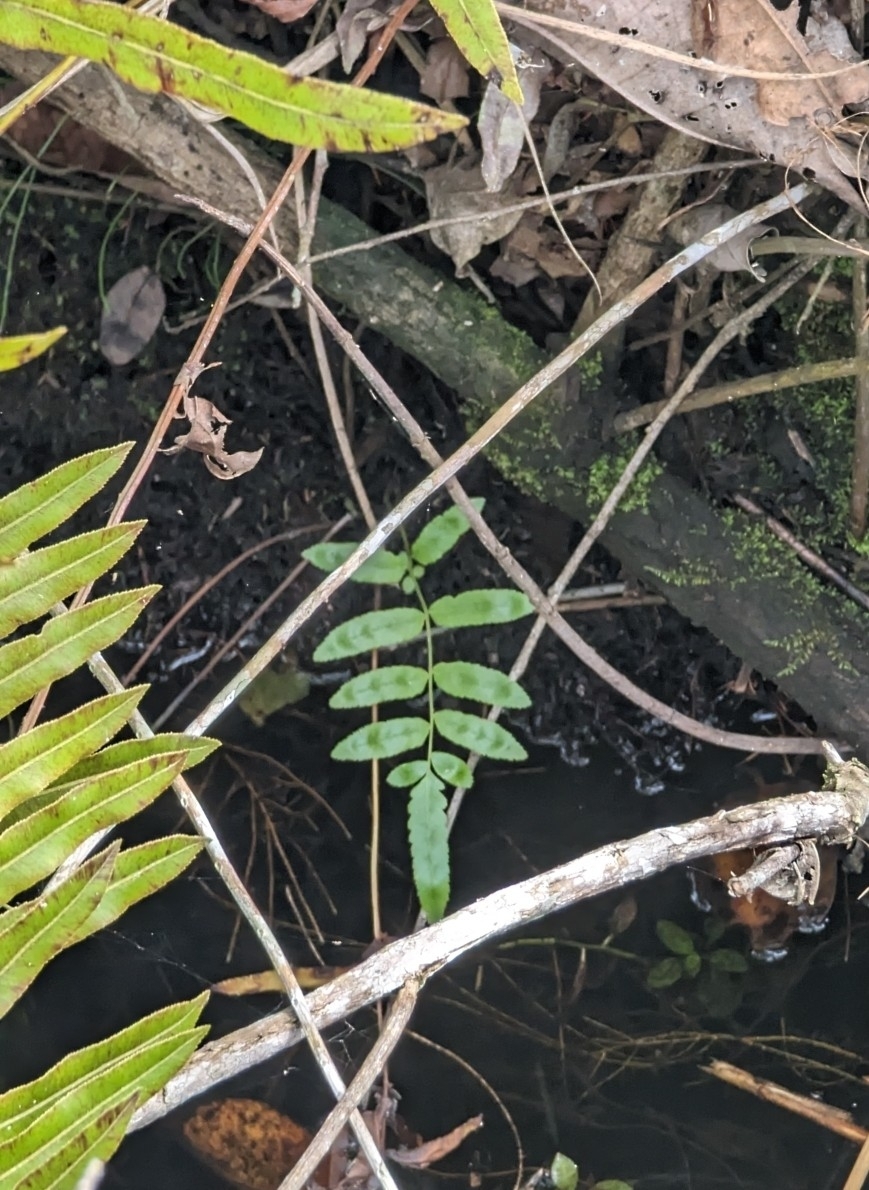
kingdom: Plantae
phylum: Tracheophyta
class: Polypodiopsida
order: Polypodiales
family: Blechnaceae
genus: Telmatoblechnum
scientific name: Telmatoblechnum serrulatum
